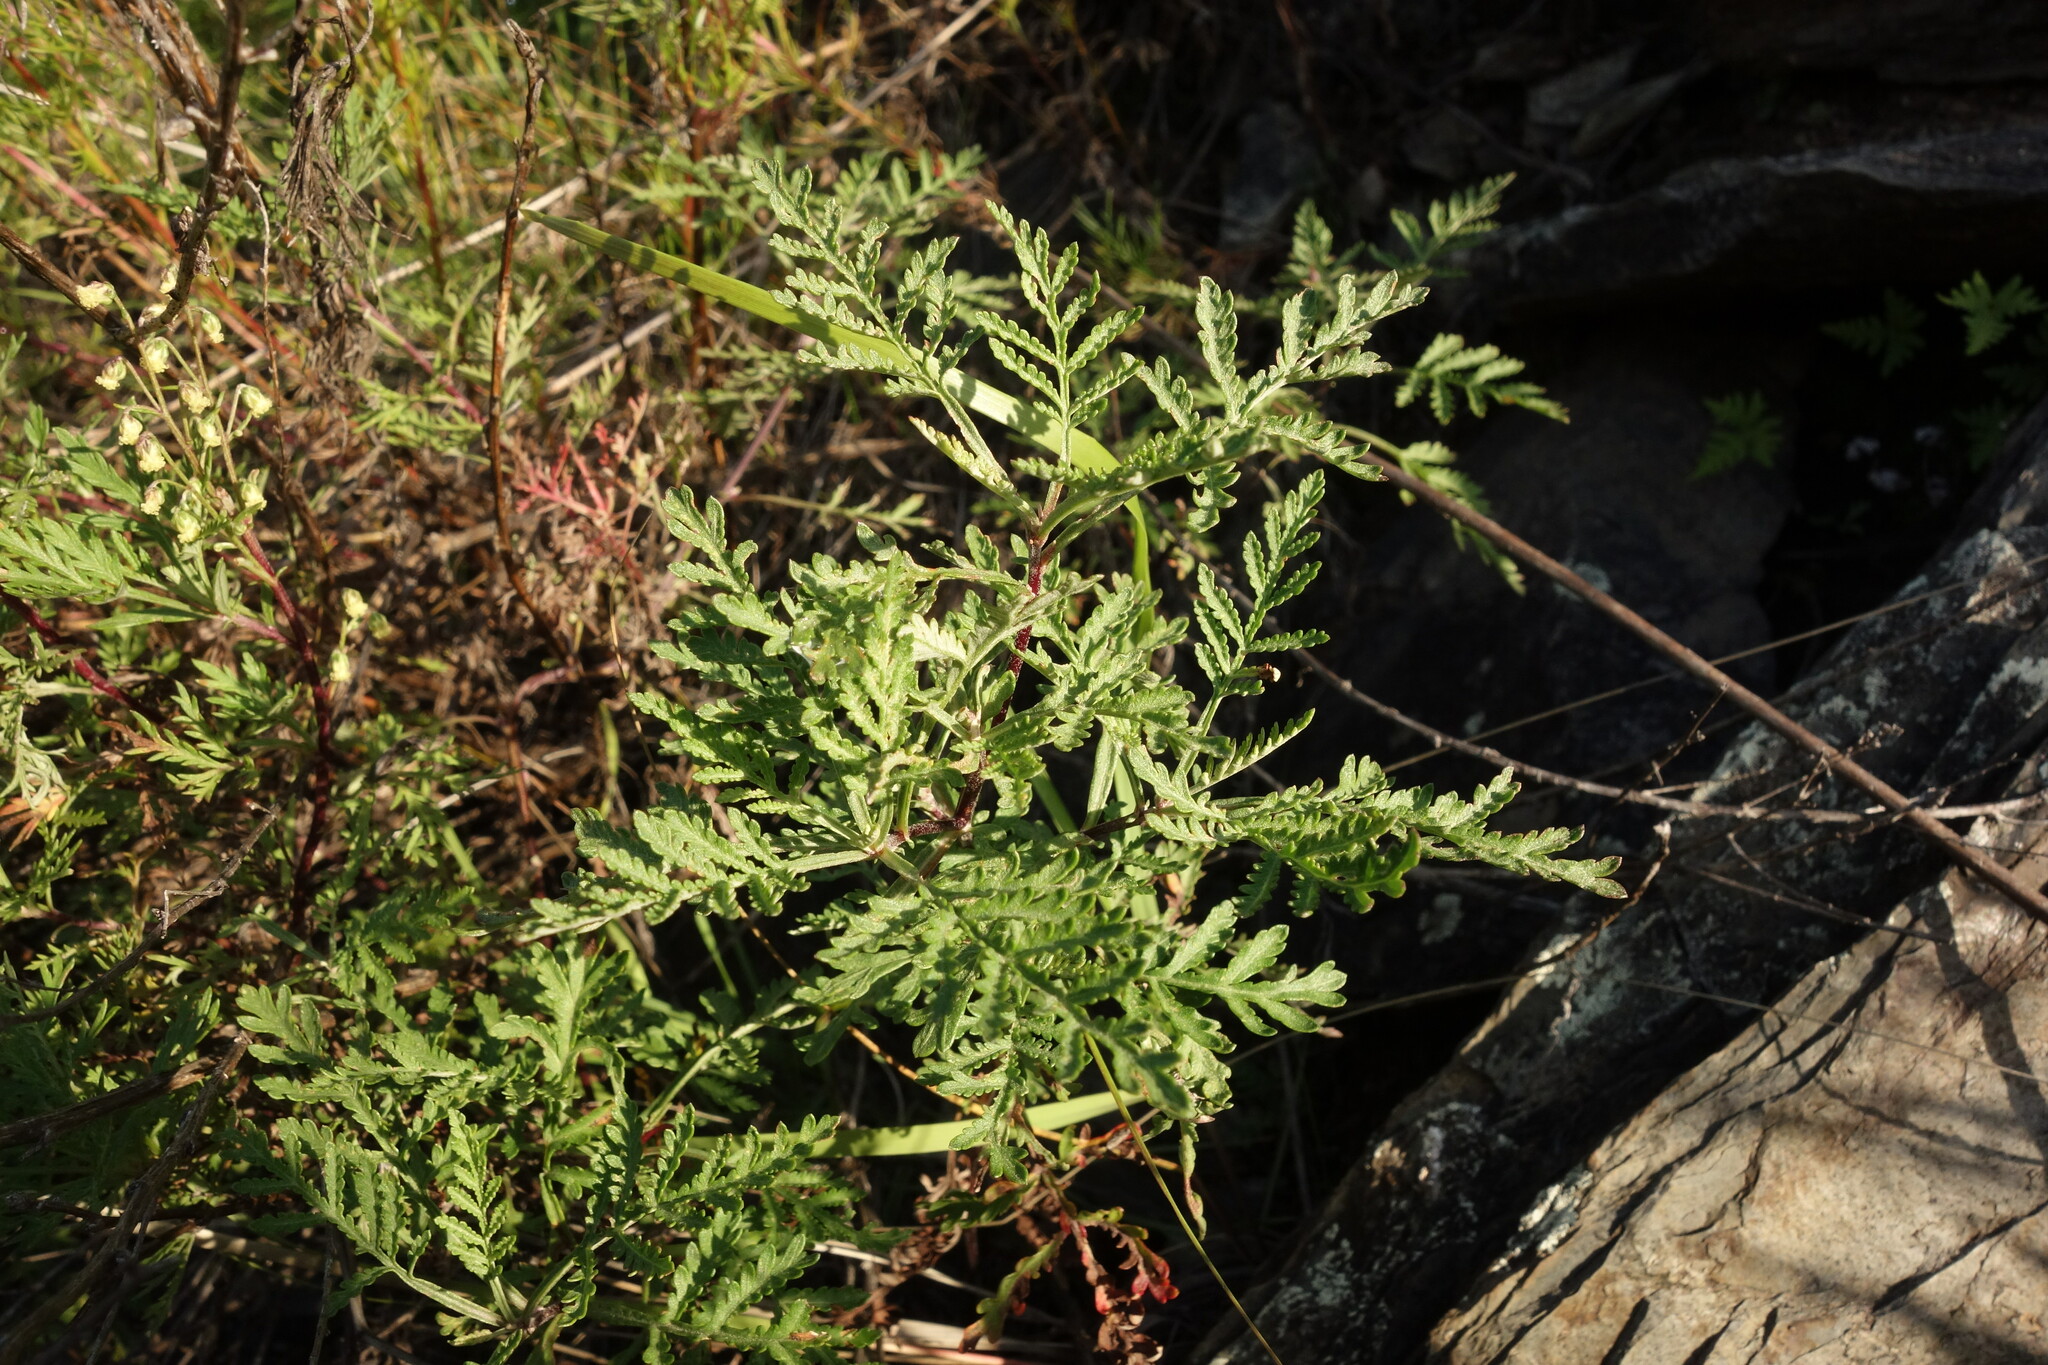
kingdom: Plantae
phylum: Tracheophyta
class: Magnoliopsida
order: Asterales
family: Asteraceae
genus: Artemisia
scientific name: Artemisia gmelinii
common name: Gmelin's wormwood
